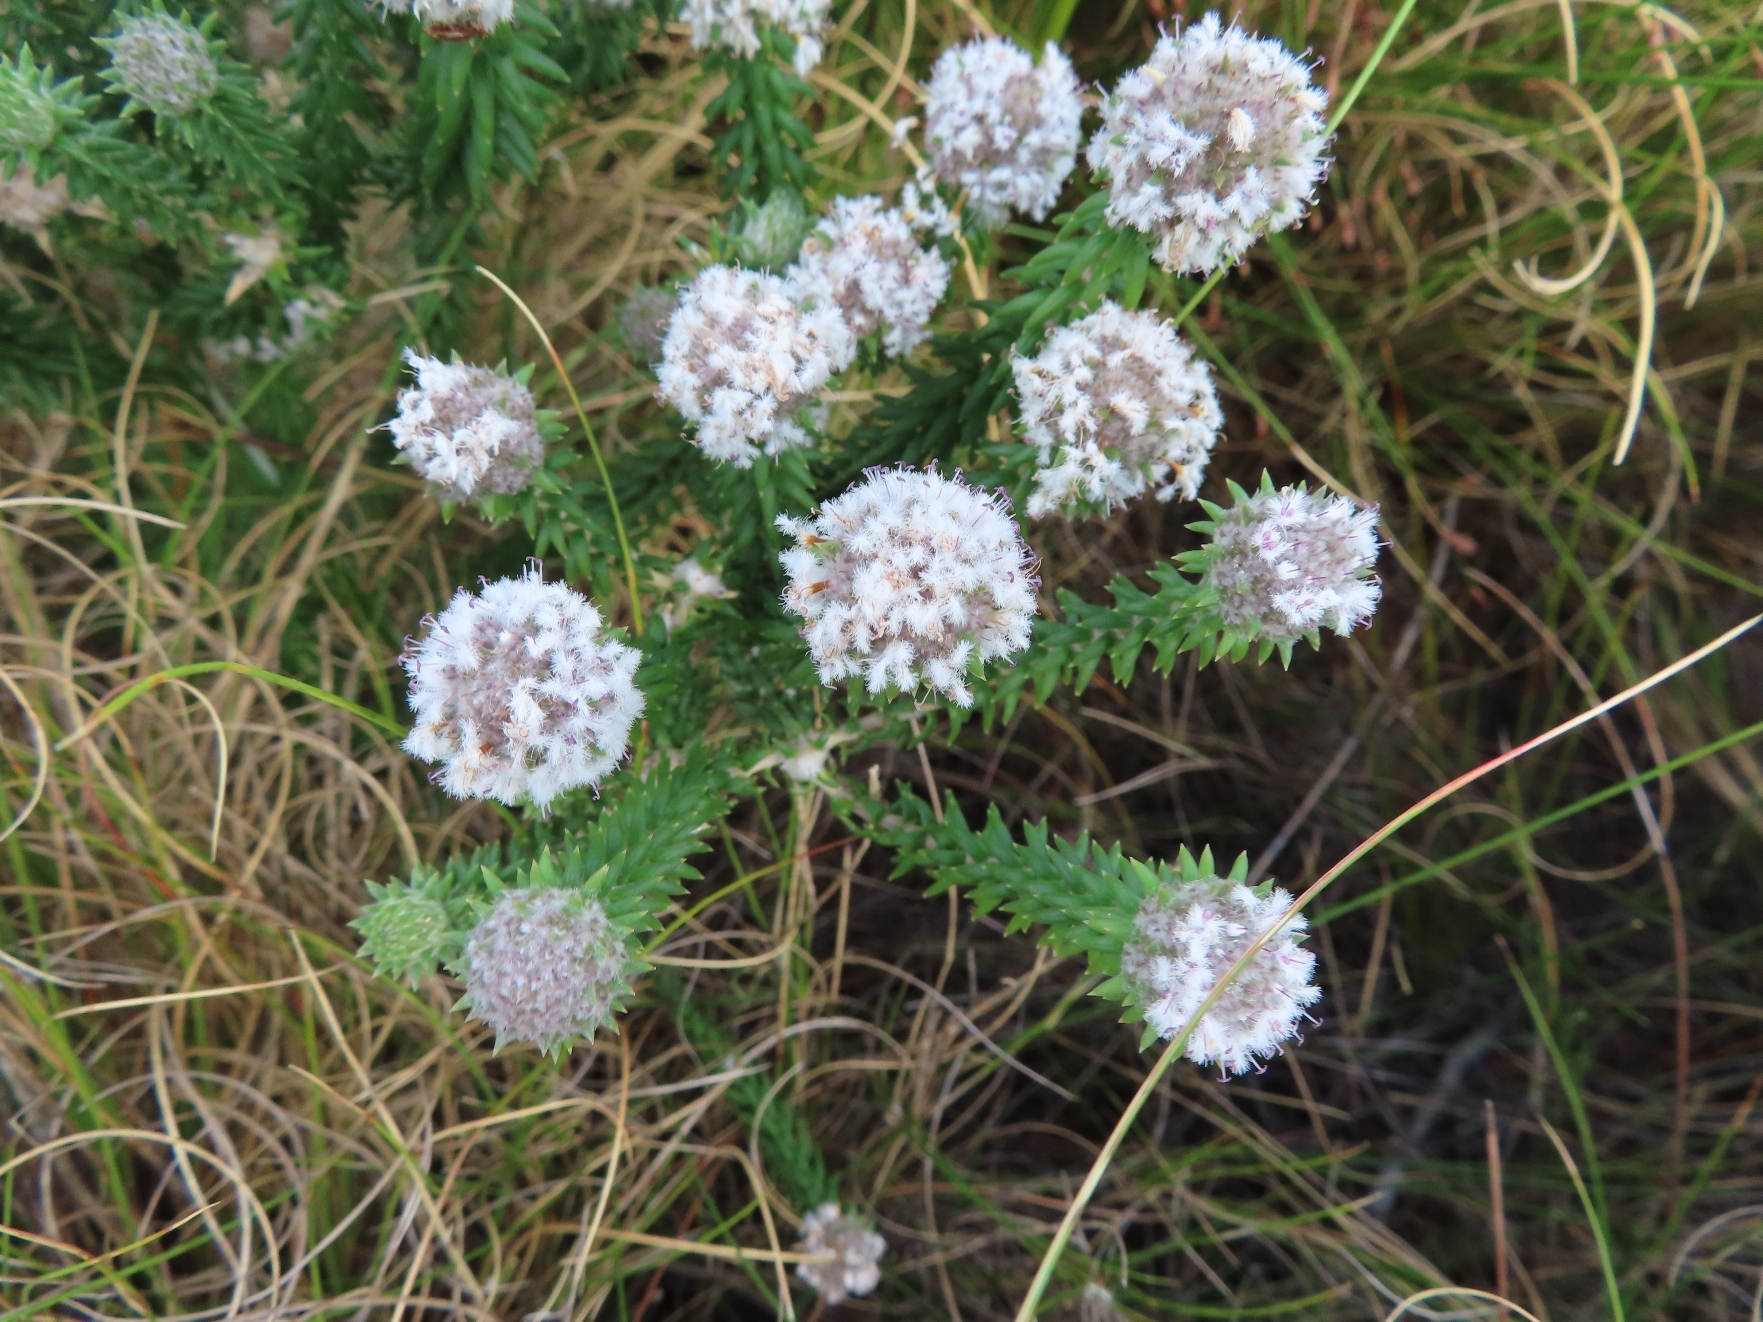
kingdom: Plantae
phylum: Tracheophyta
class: Magnoliopsida
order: Lamiales
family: Stilbaceae
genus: Kogelbergia
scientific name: Kogelbergia verticillata
